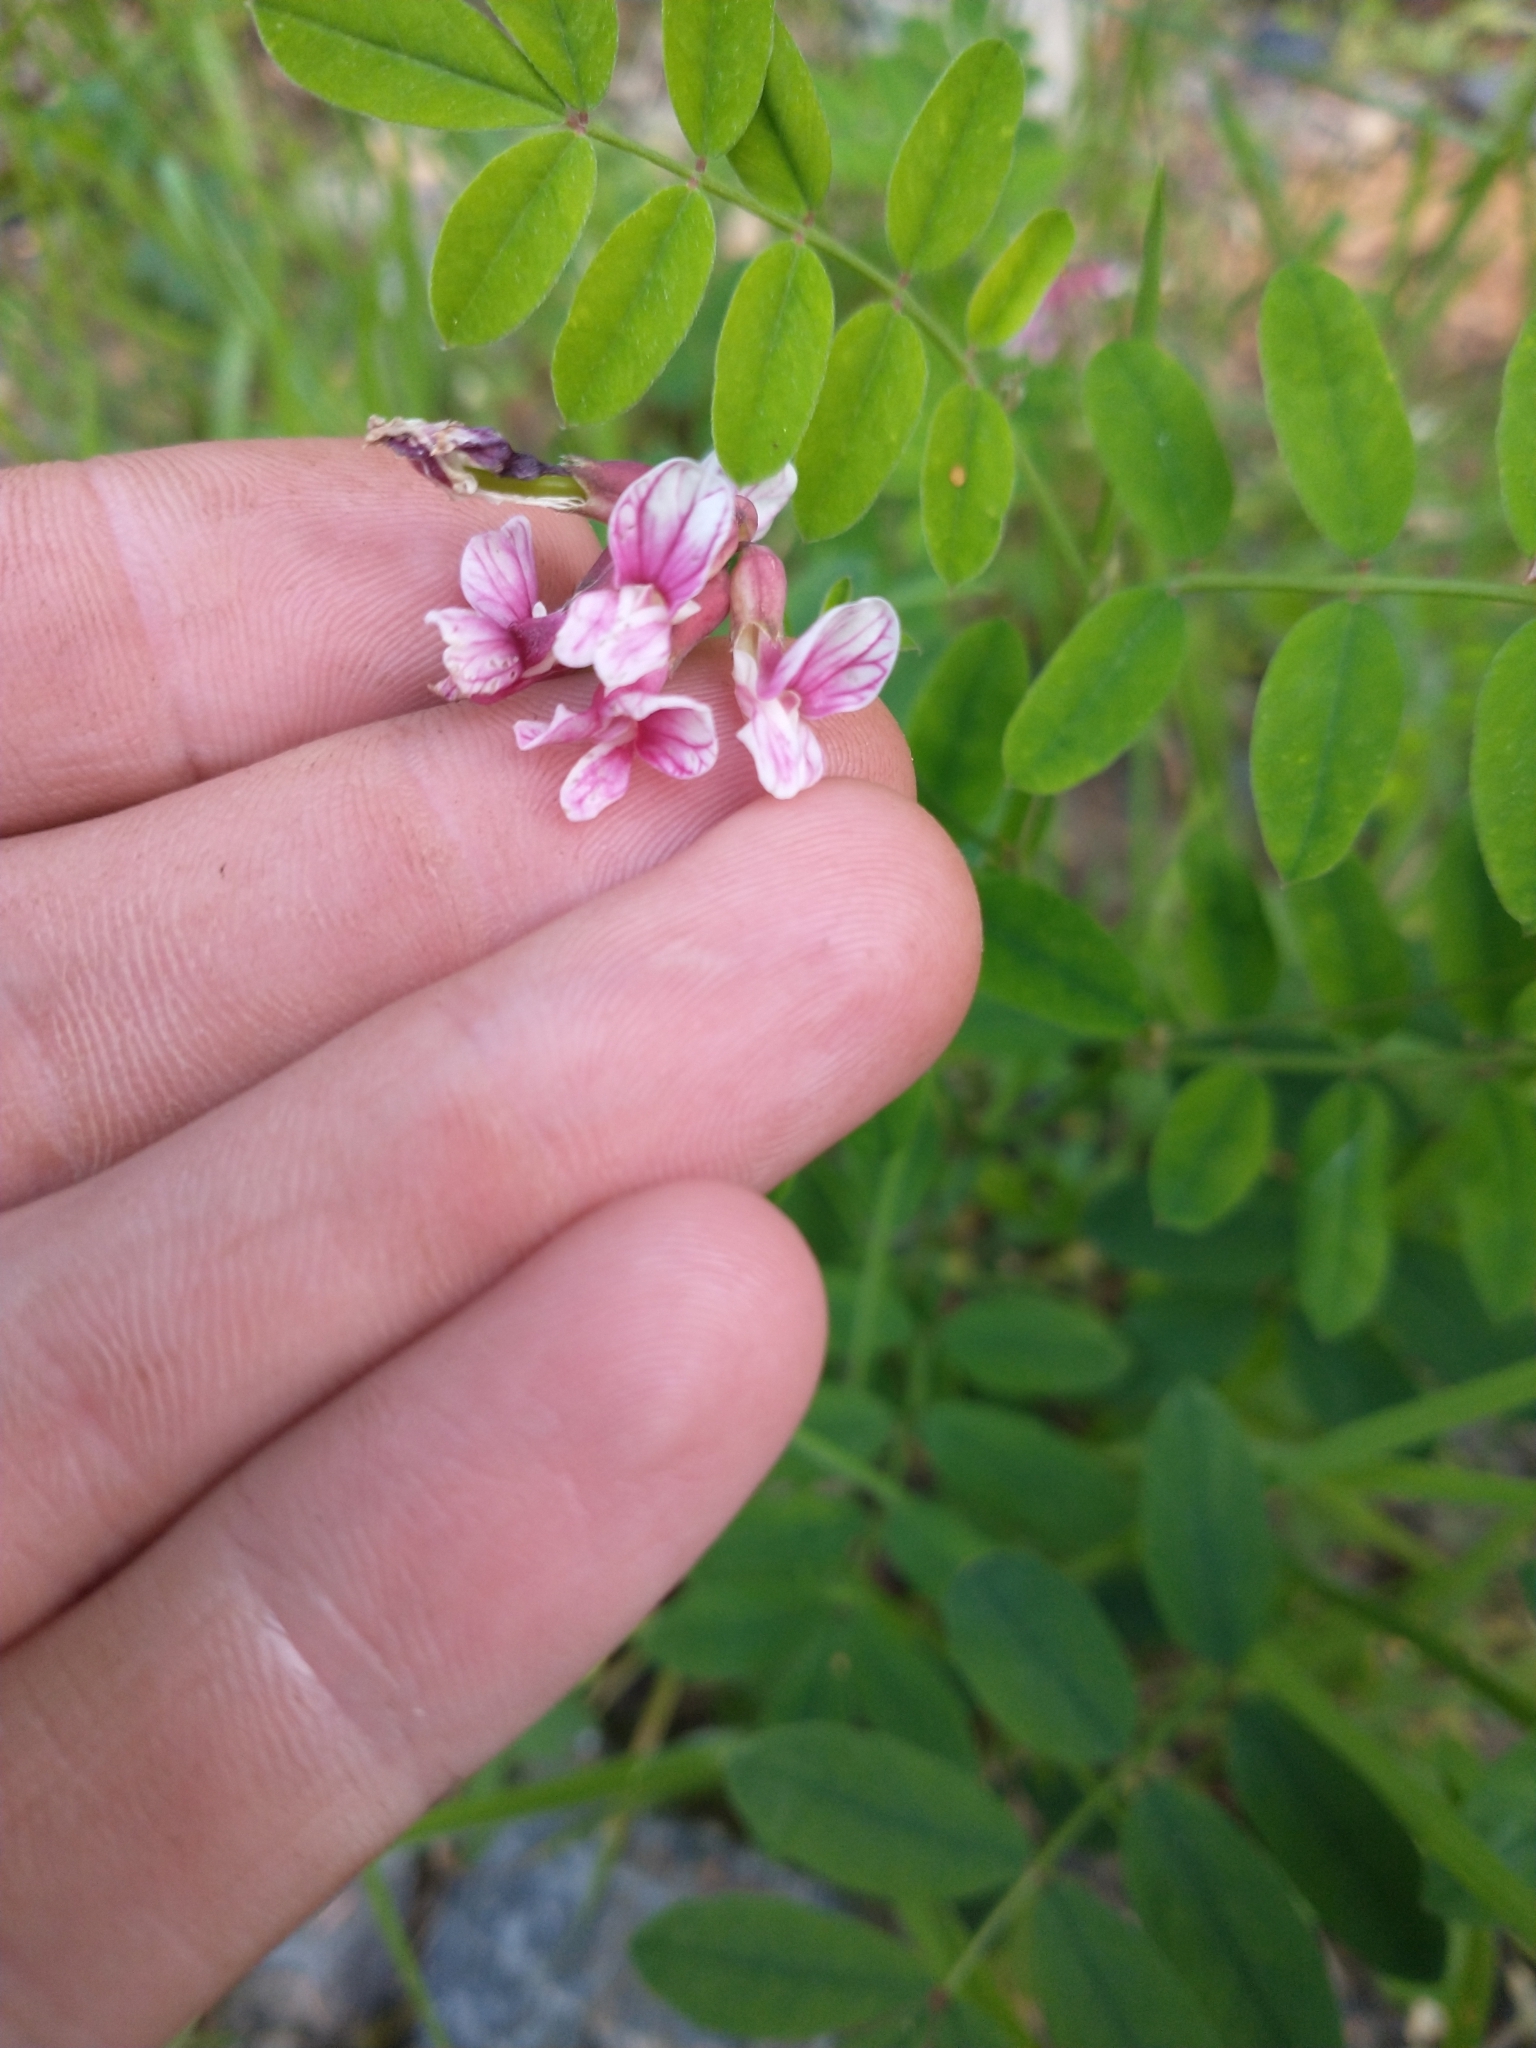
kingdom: Plantae
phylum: Tracheophyta
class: Magnoliopsida
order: Fabales
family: Fabaceae
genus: Hosackia
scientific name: Hosackia rosea
